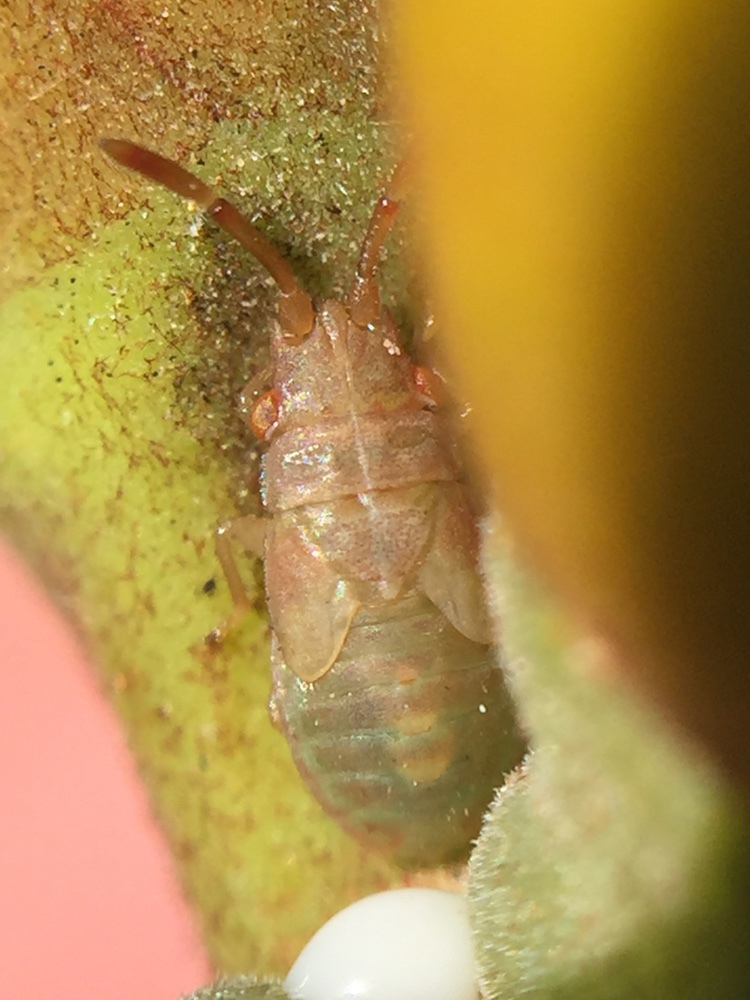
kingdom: Animalia
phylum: Arthropoda
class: Insecta
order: Hemiptera
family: Meschiidae
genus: Meschia
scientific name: Meschia barrowensis
